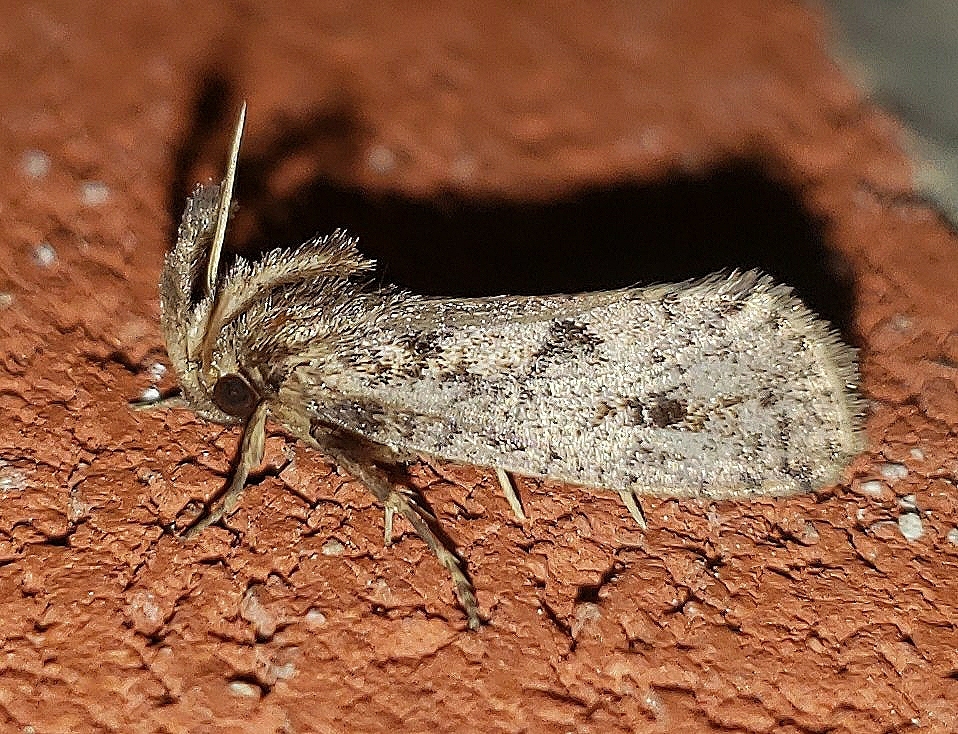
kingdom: Animalia
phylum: Arthropoda
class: Insecta
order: Lepidoptera
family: Tineidae
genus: Acrolophus
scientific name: Acrolophus popeanella
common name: Clemens' grass tubeworm moth
